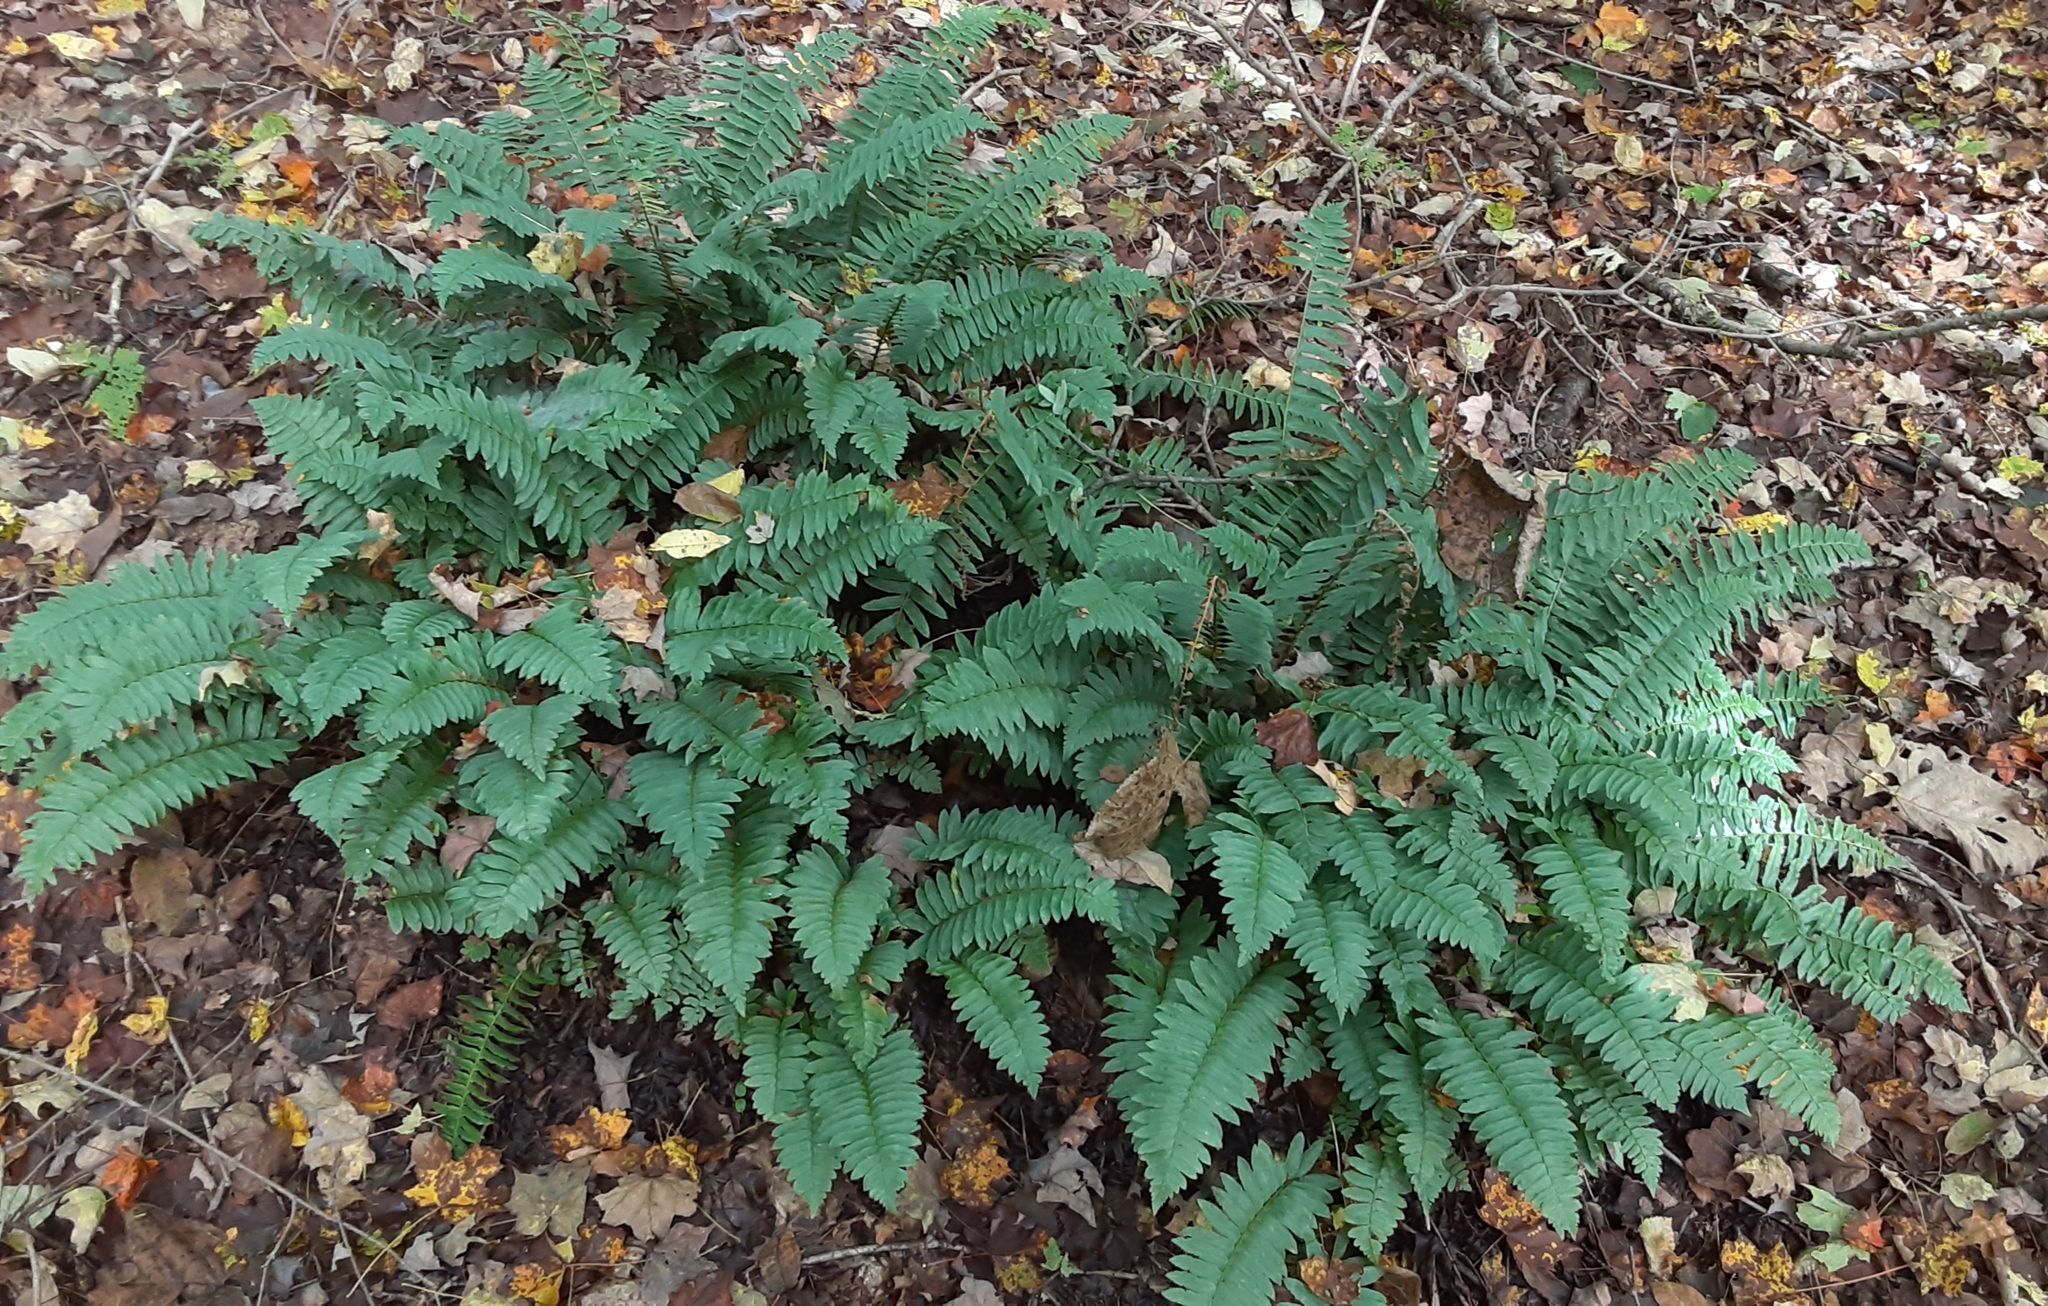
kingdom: Plantae
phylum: Tracheophyta
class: Polypodiopsida
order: Polypodiales
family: Dryopteridaceae
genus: Polystichum
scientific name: Polystichum acrostichoides
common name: Christmas fern
